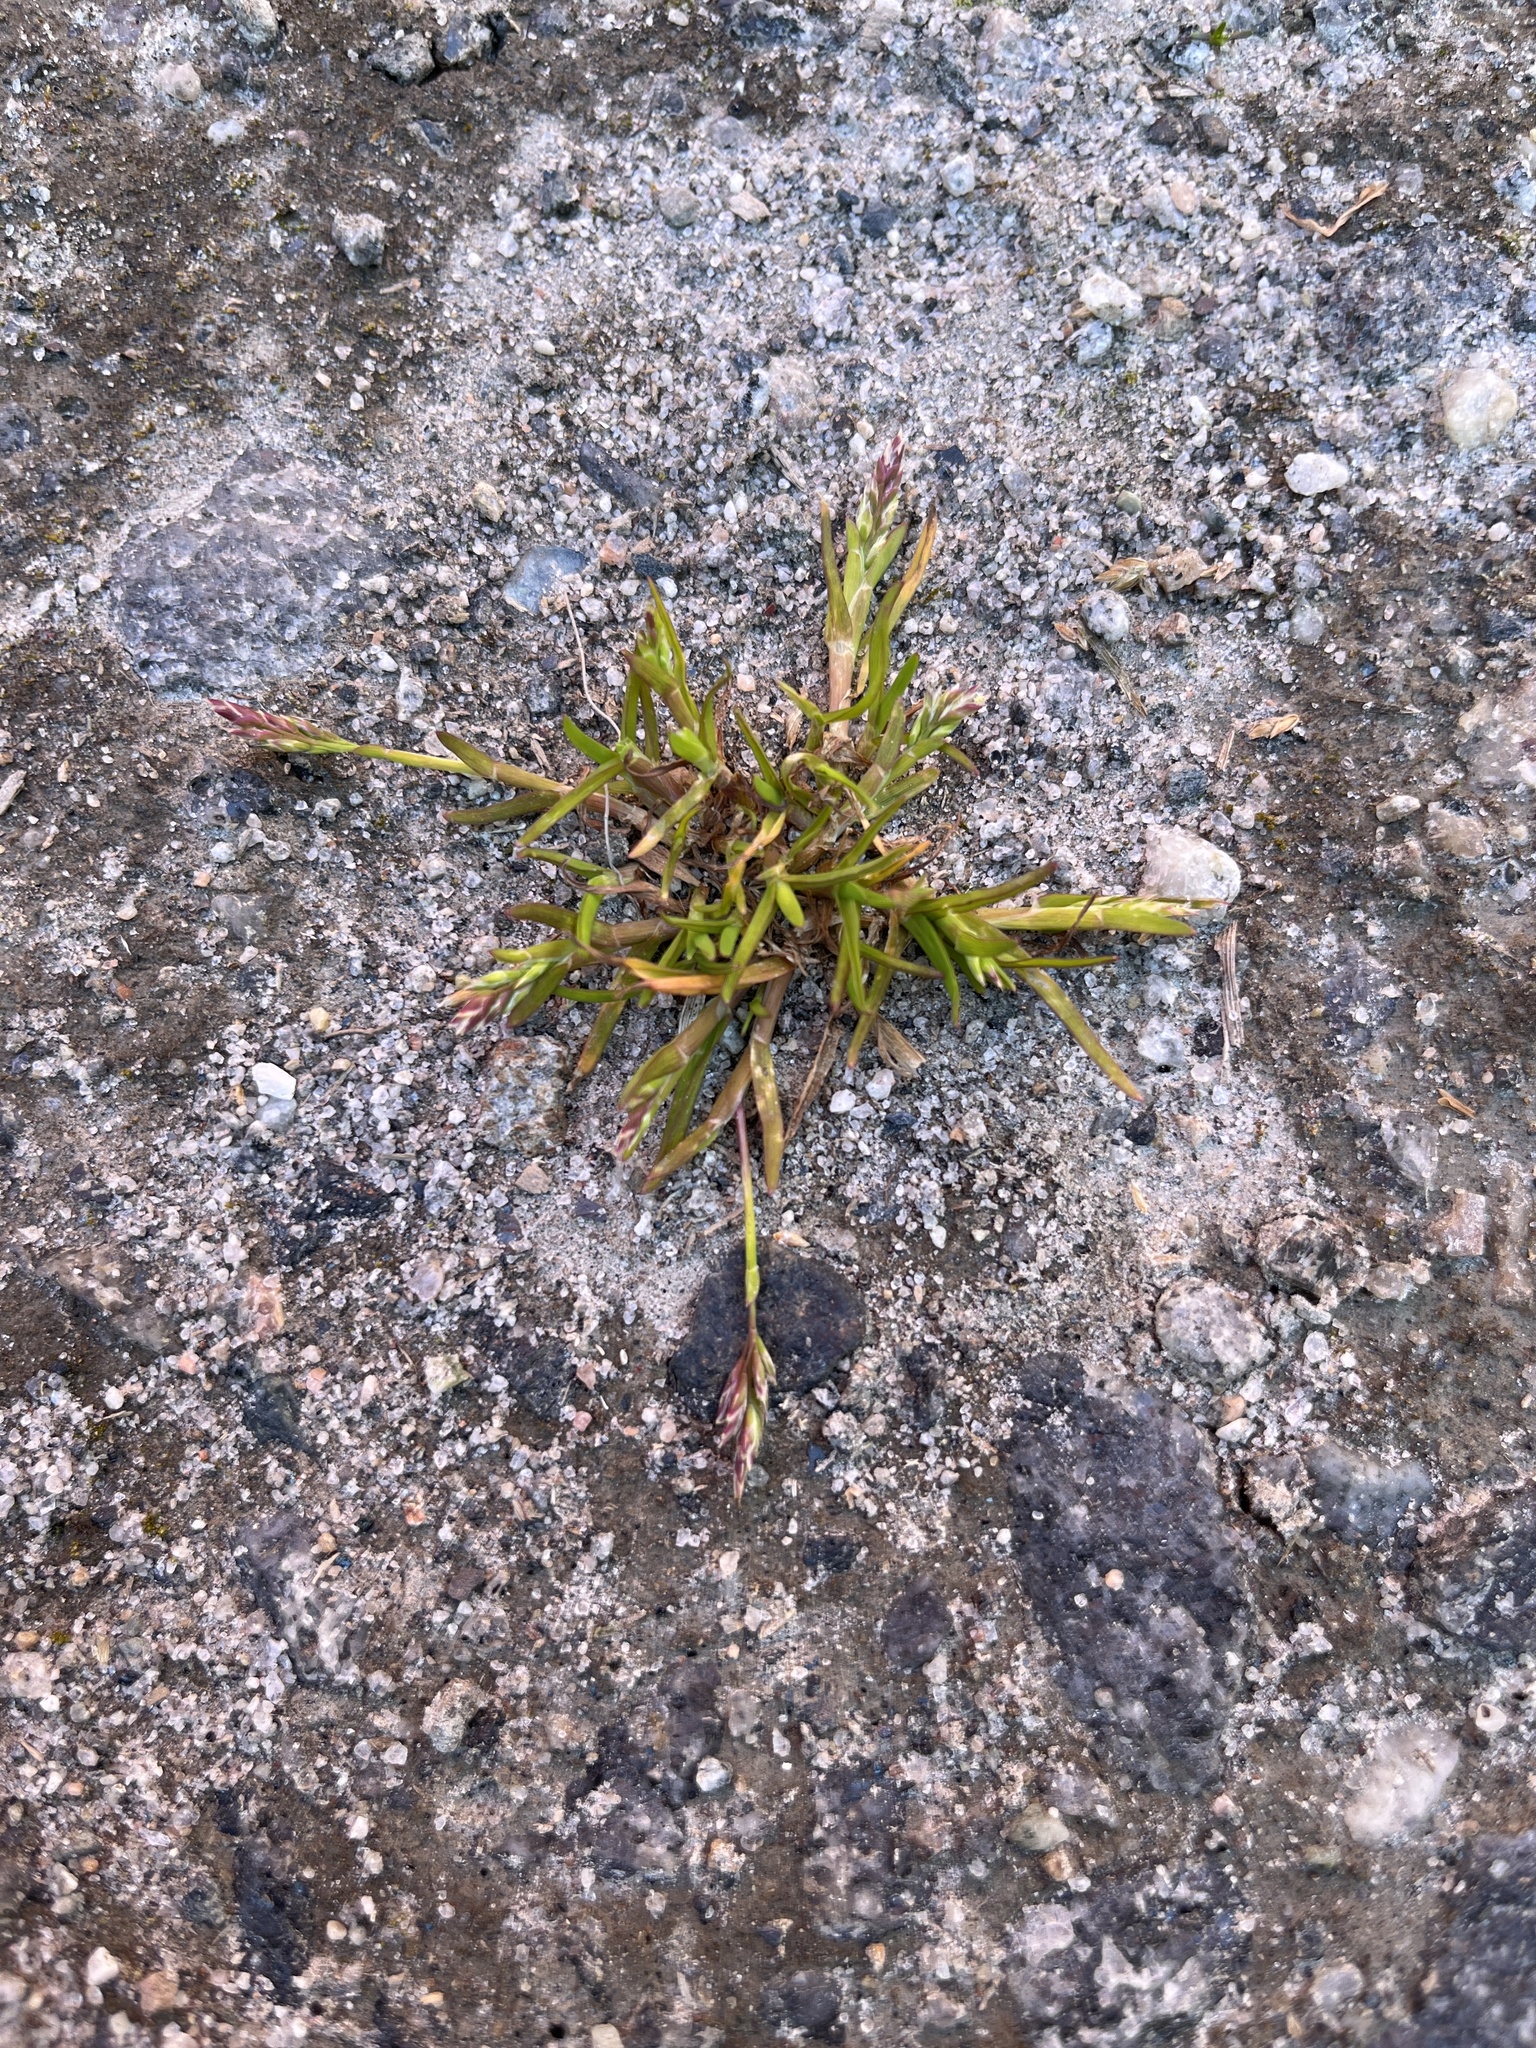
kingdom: Plantae
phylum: Tracheophyta
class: Liliopsida
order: Poales
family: Poaceae
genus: Poa
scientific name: Poa annua
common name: Annual bluegrass
